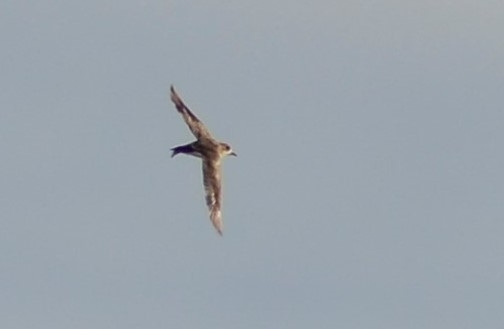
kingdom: Animalia
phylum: Chordata
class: Aves
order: Charadriiformes
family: Charadriidae
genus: Anarhynchus
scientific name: Anarhynchus
